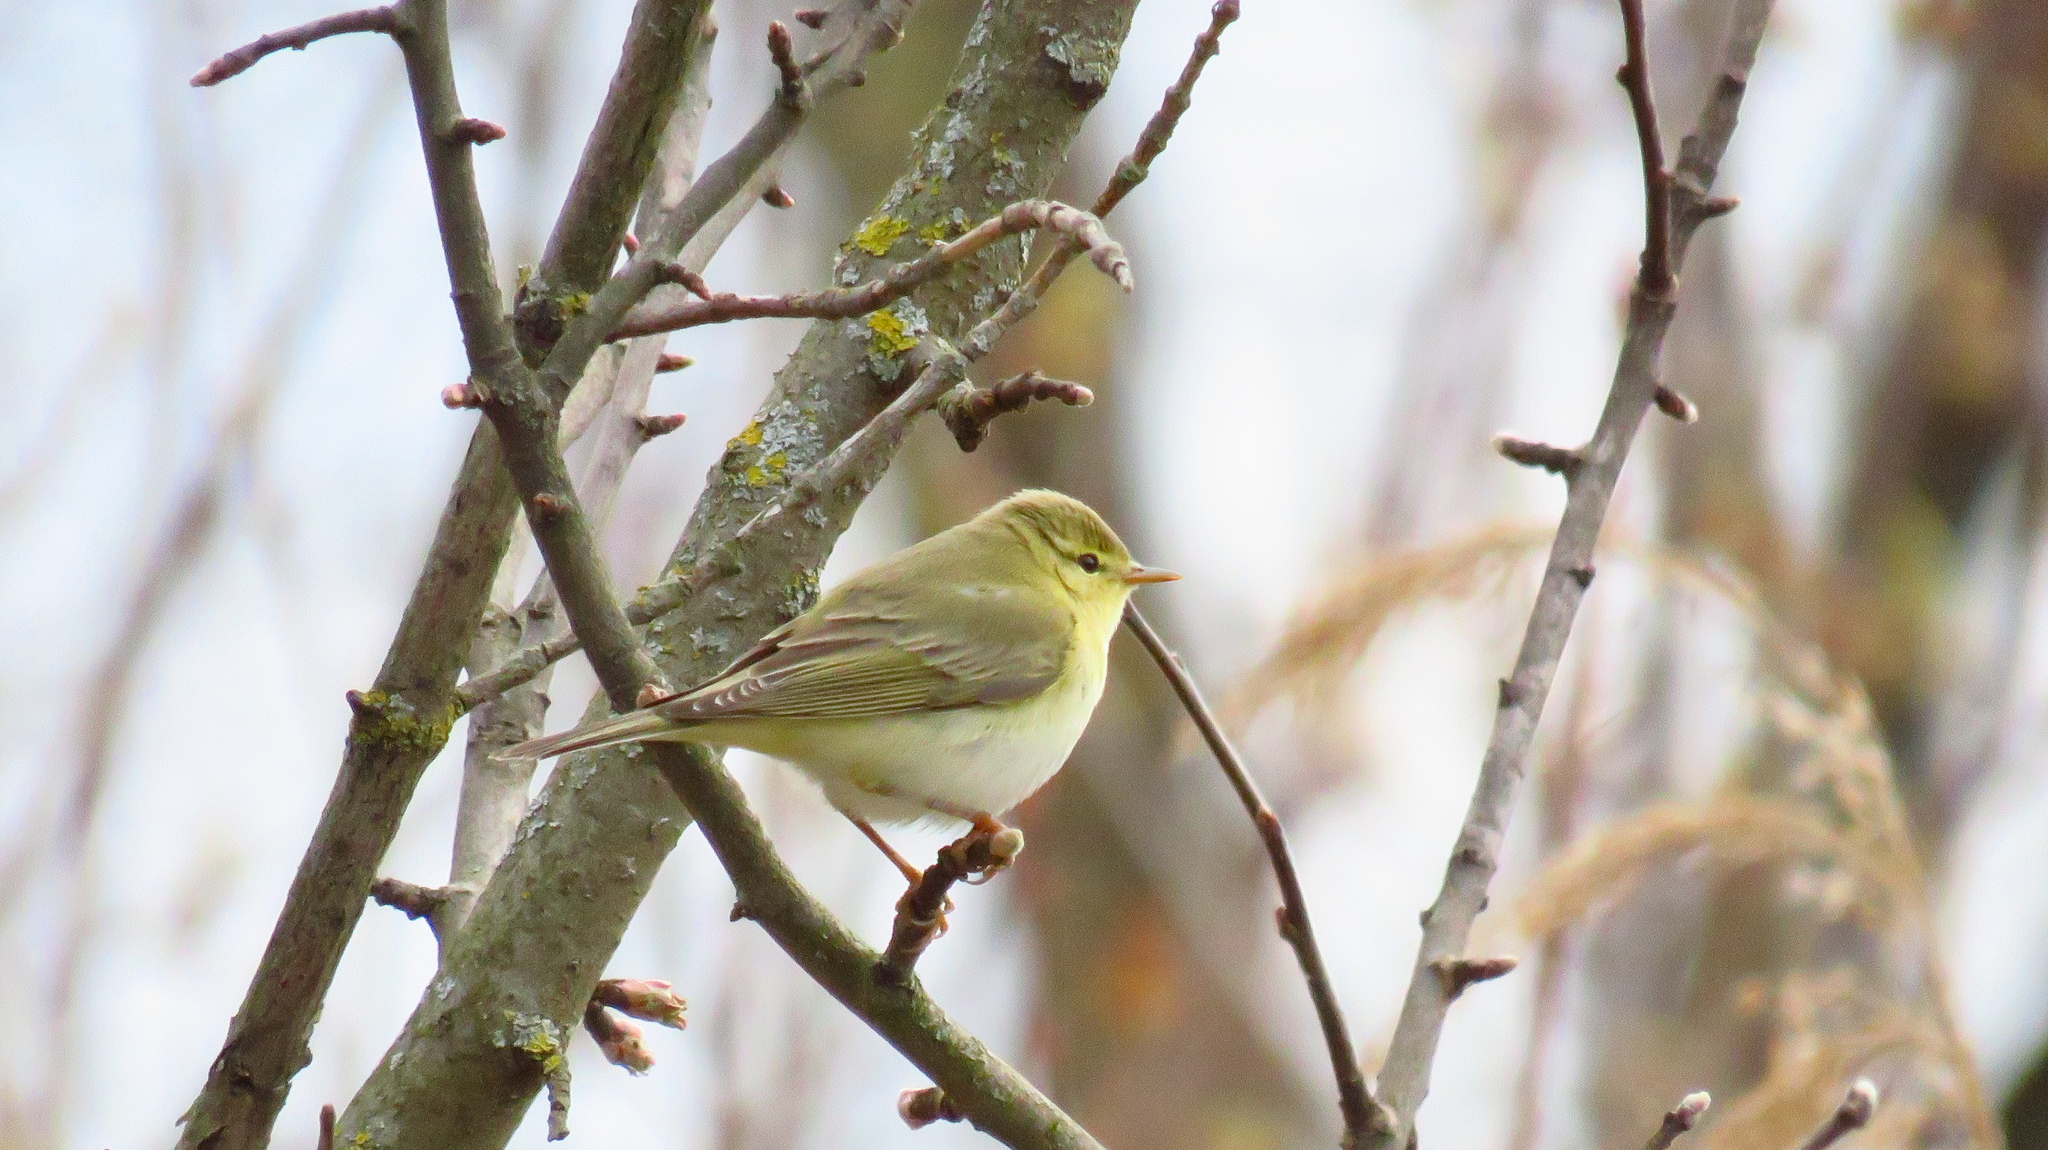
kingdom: Animalia
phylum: Chordata
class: Aves
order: Passeriformes
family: Phylloscopidae
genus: Phylloscopus
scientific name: Phylloscopus trochilus
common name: Willow warbler
